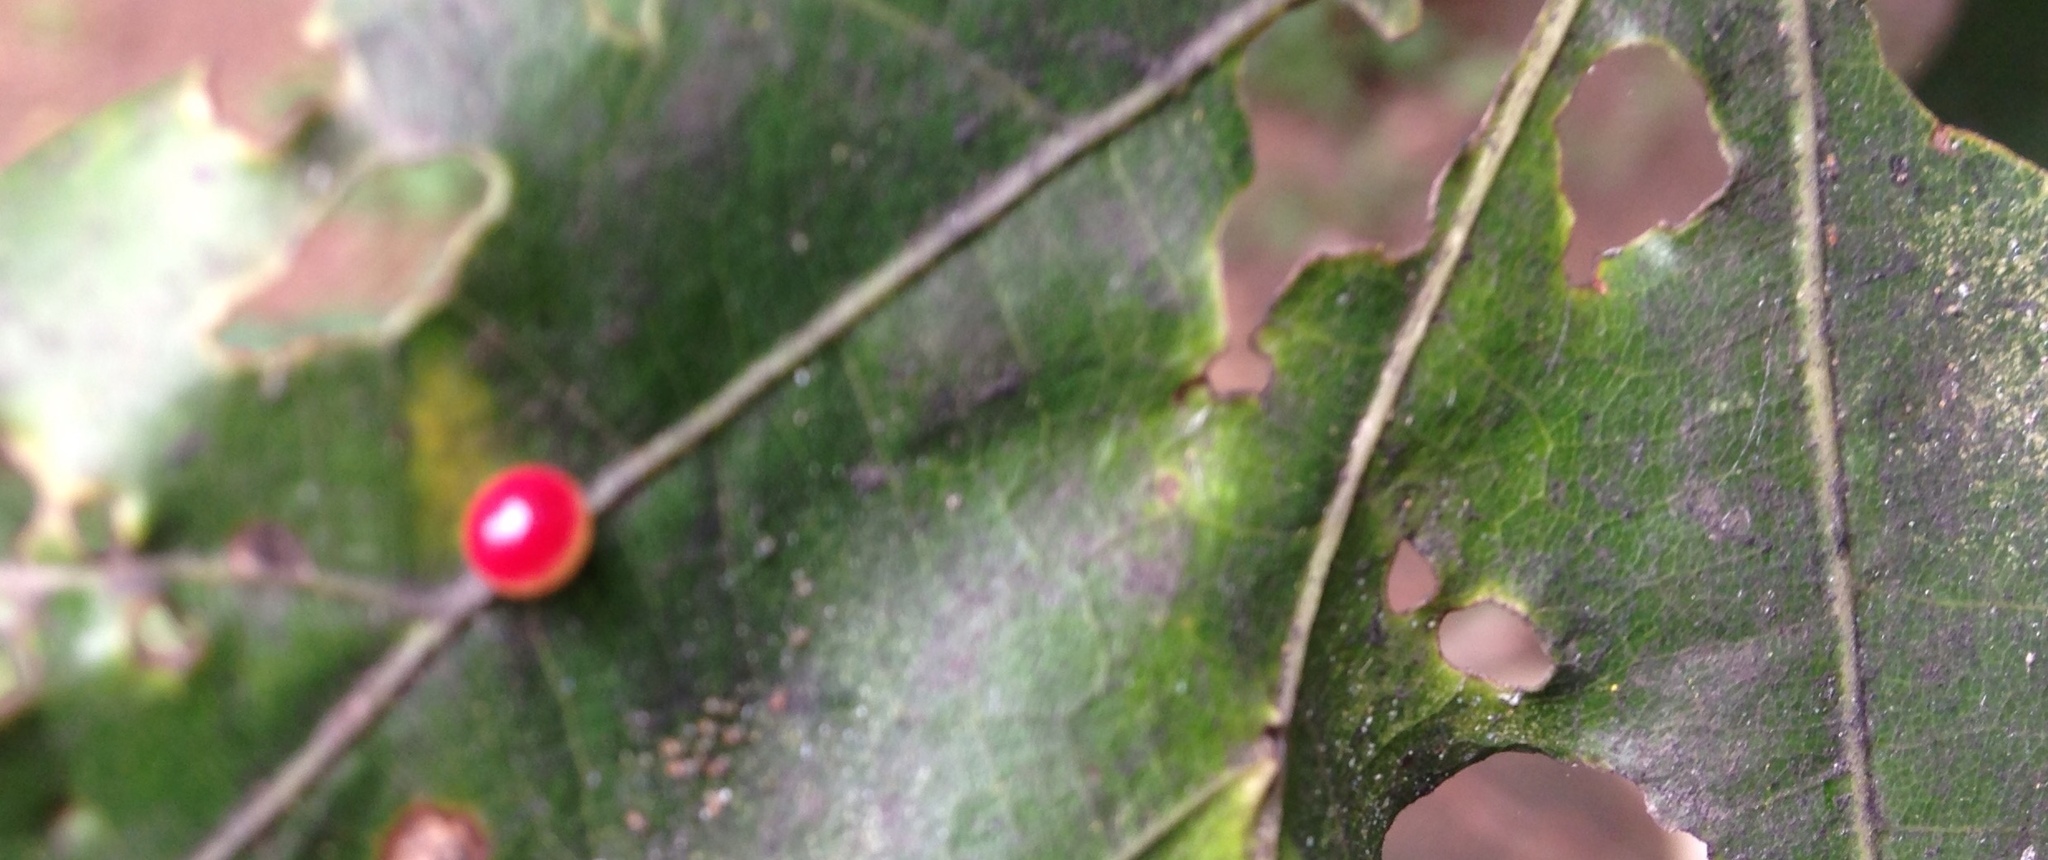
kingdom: Animalia
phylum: Arthropoda
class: Insecta
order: Hymenoptera
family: Cynipidae
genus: Zopheroteras
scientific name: Zopheroteras
